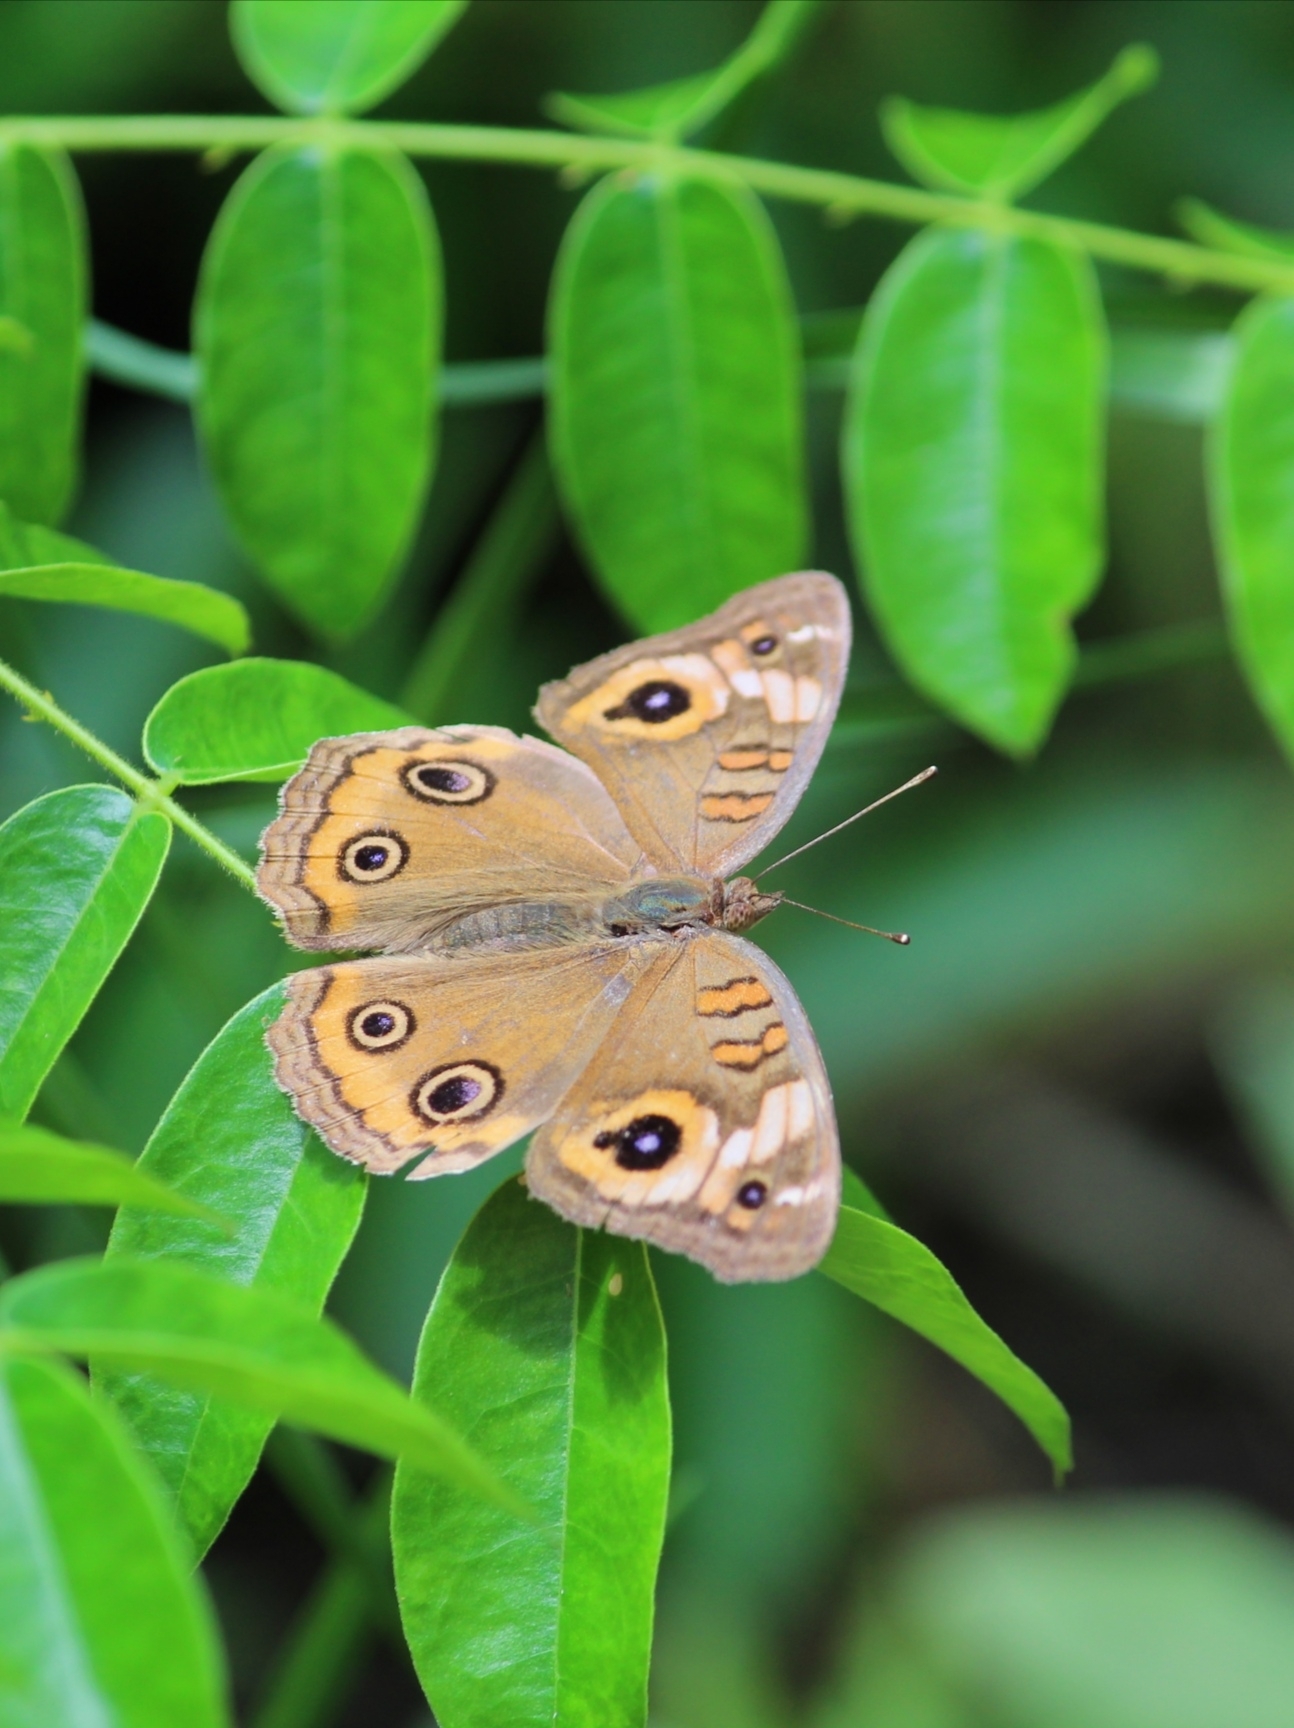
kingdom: Animalia
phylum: Arthropoda
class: Insecta
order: Lepidoptera
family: Nymphalidae
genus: Junonia
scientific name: Junonia neildi
